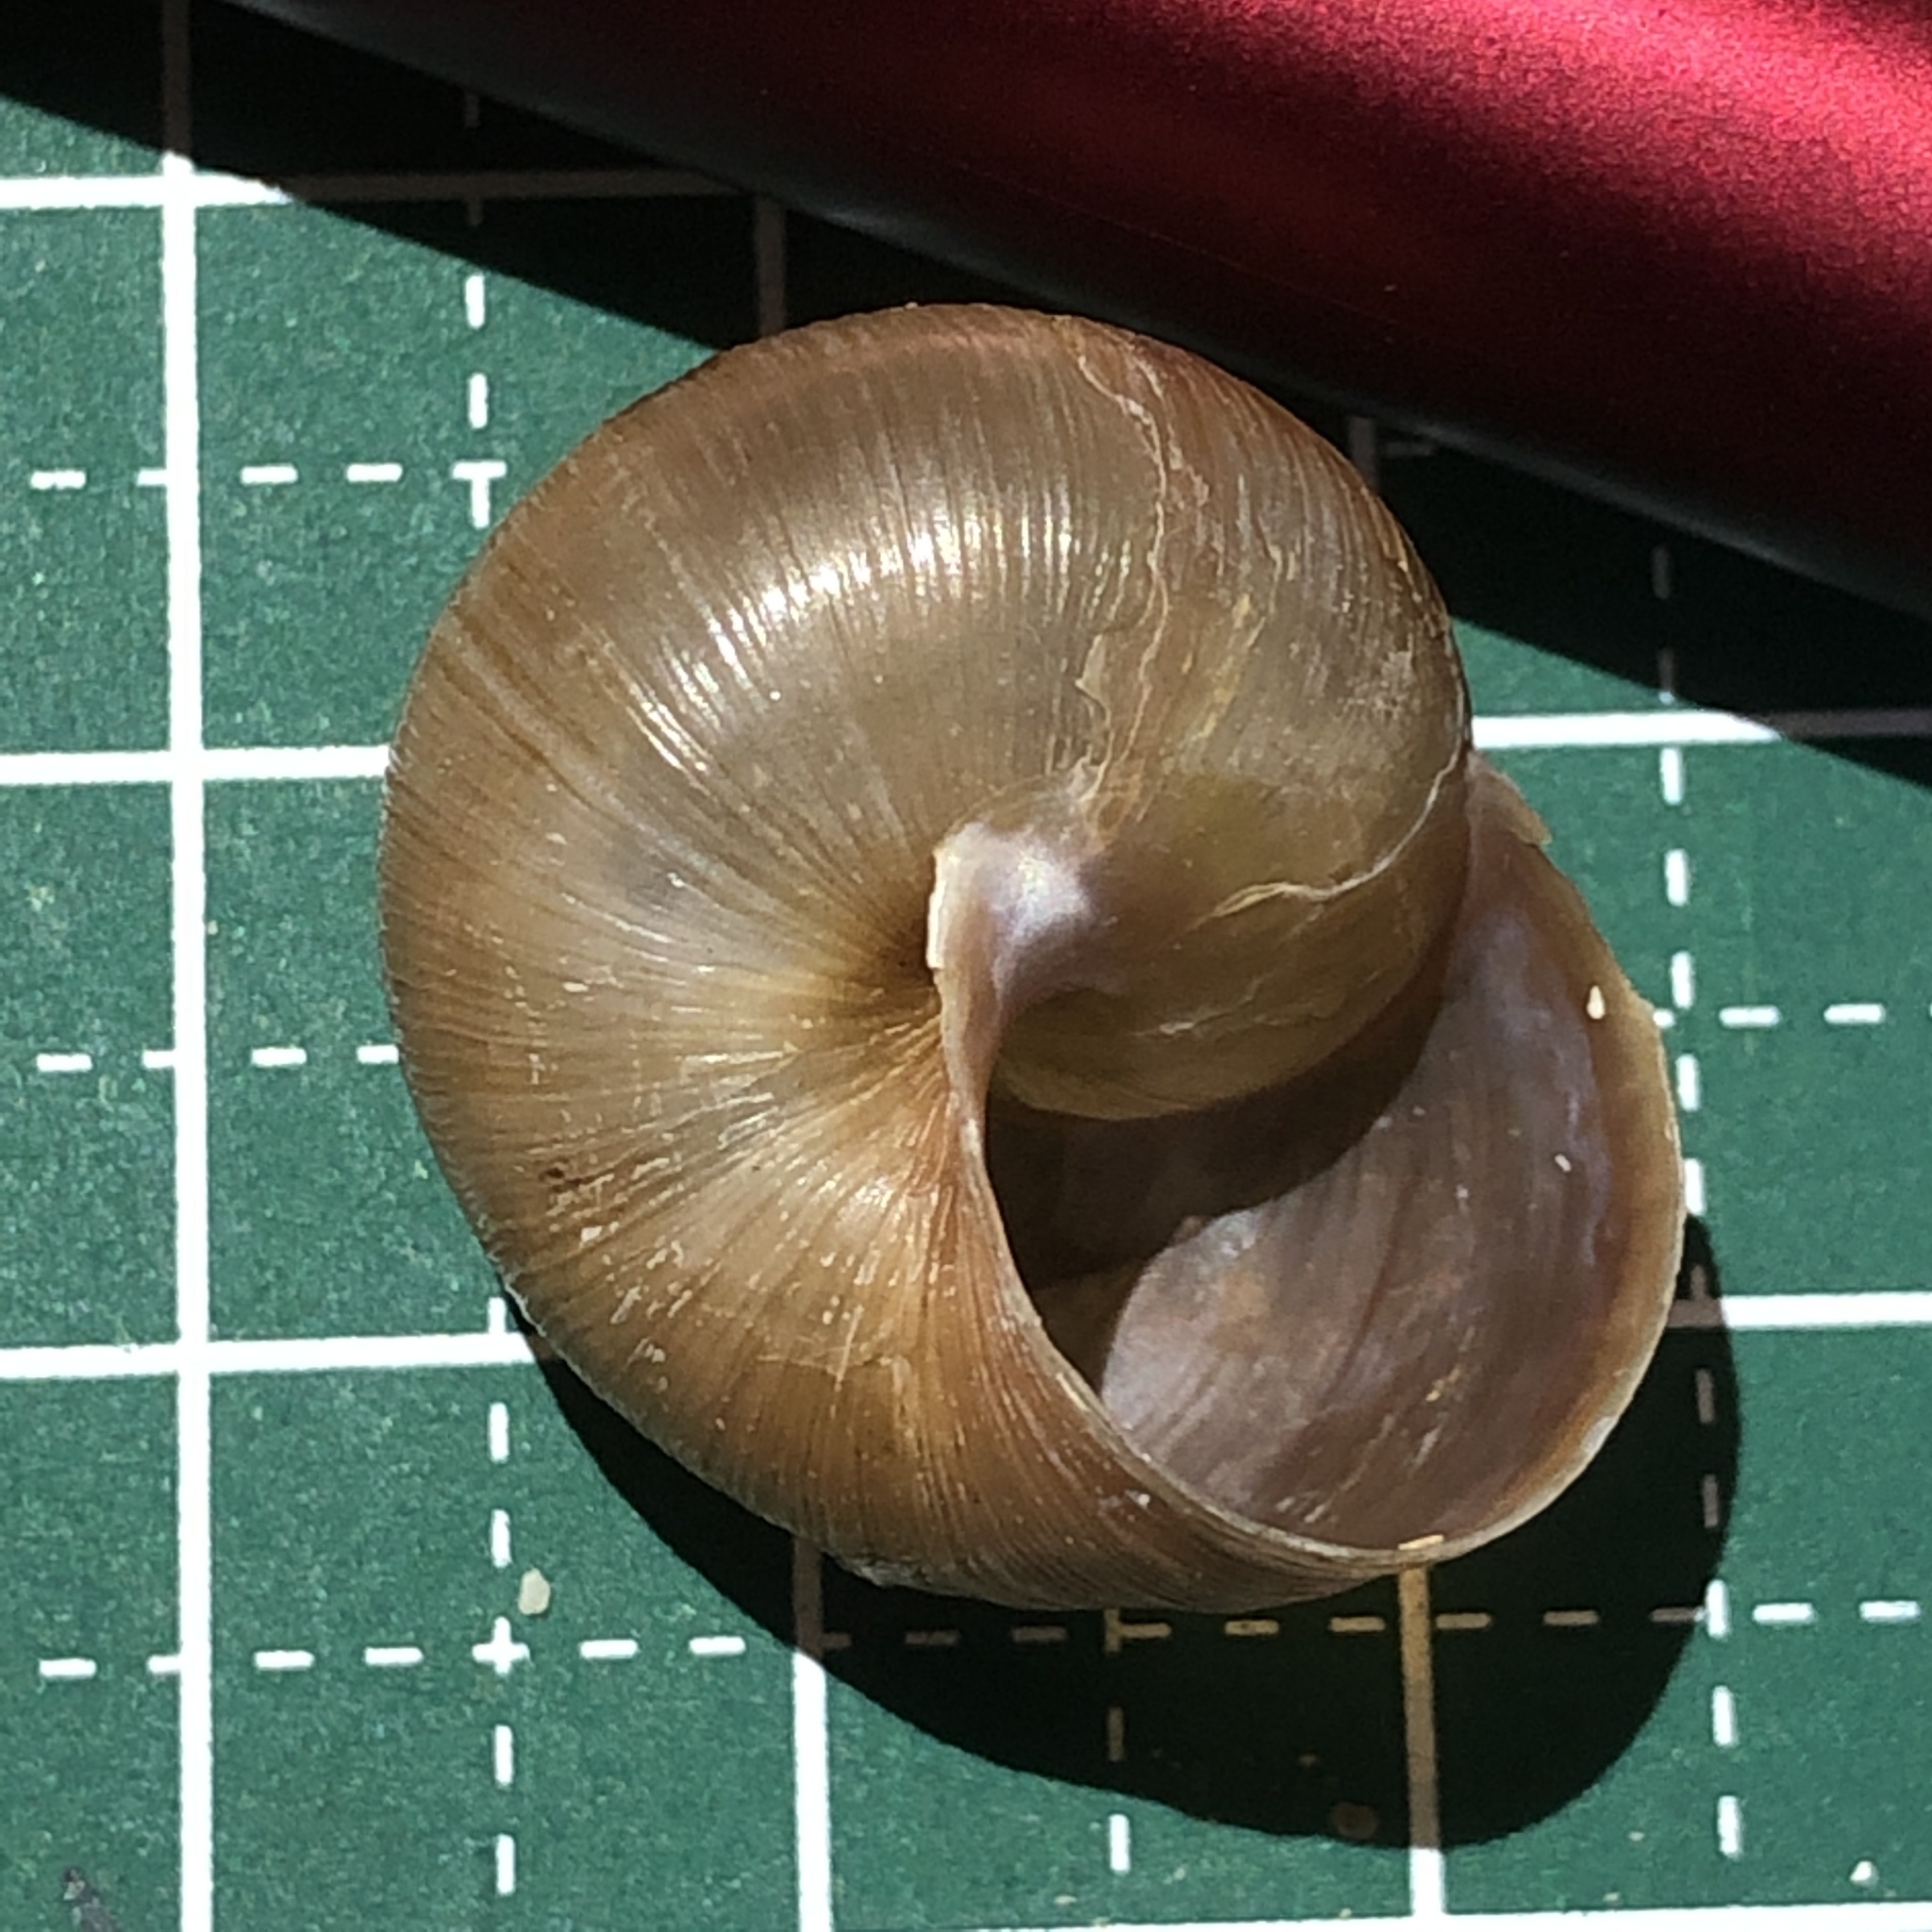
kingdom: Animalia
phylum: Mollusca
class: Gastropoda
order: Stylommatophora
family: Camaenidae
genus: Acusta
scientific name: Acusta despecta
